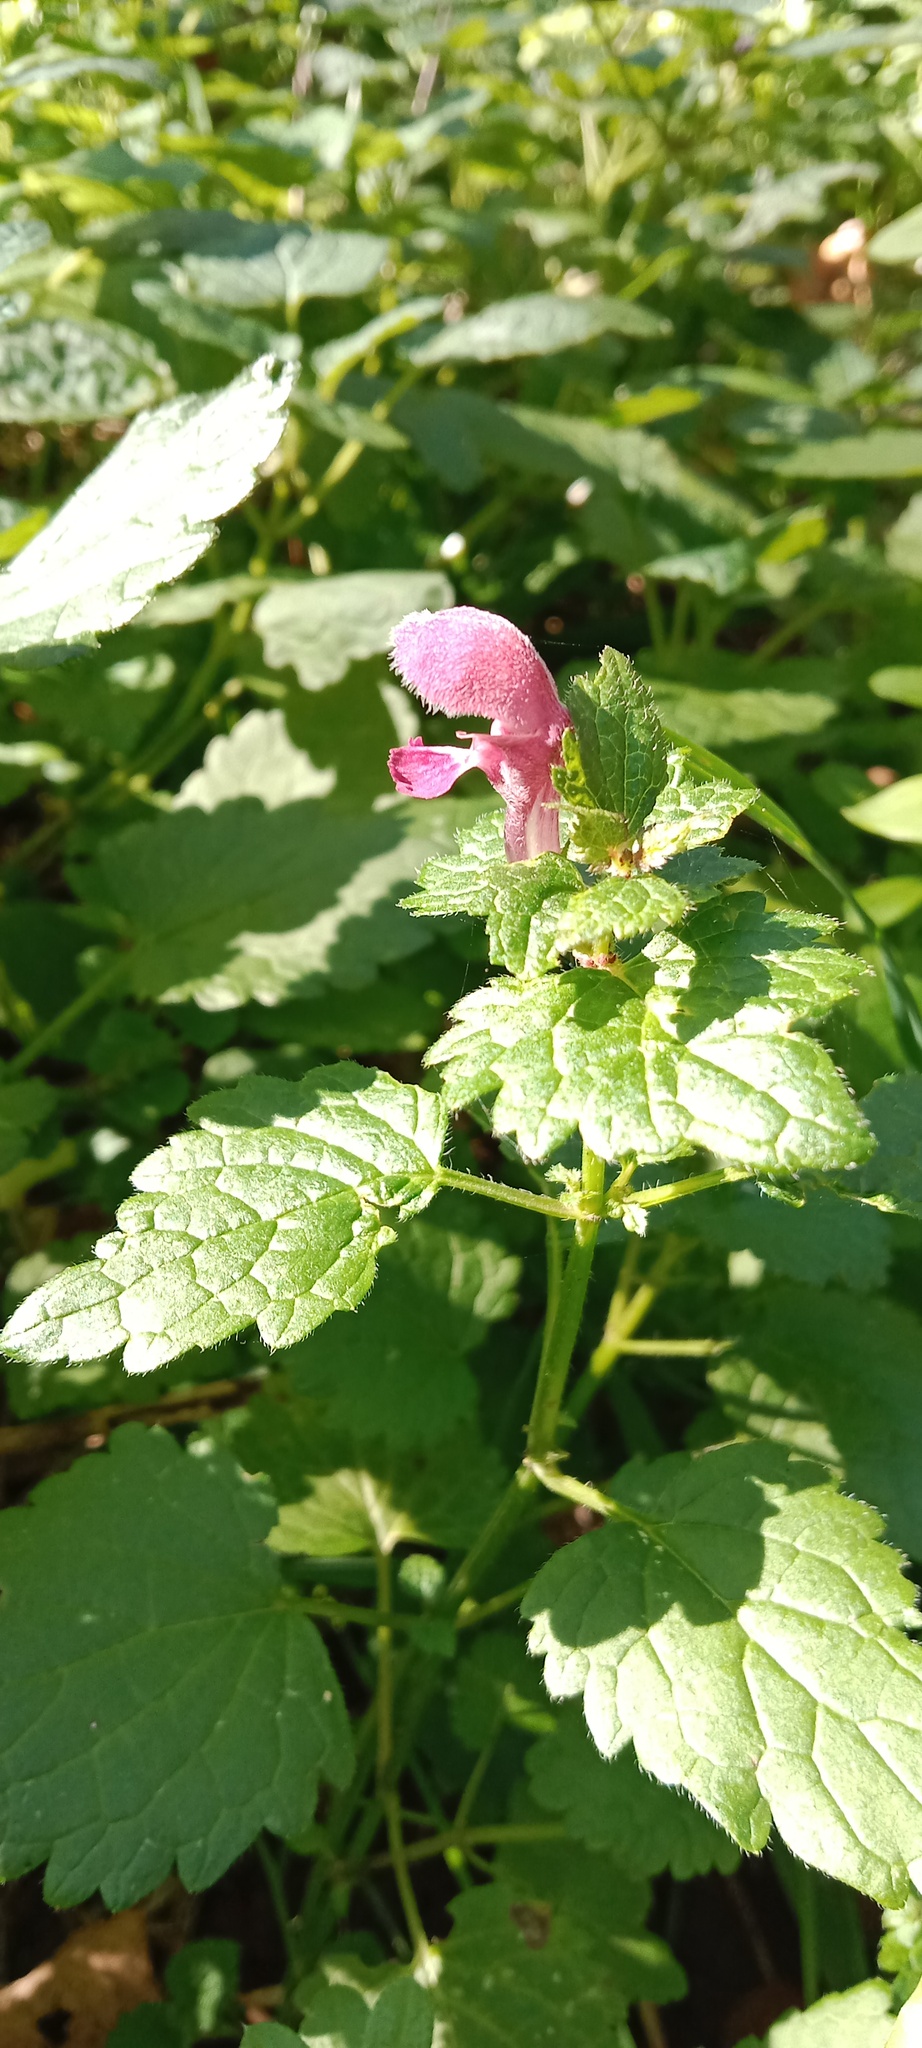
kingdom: Plantae
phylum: Tracheophyta
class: Magnoliopsida
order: Lamiales
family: Lamiaceae
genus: Lamium
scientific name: Lamium maculatum
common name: Spotted dead-nettle
